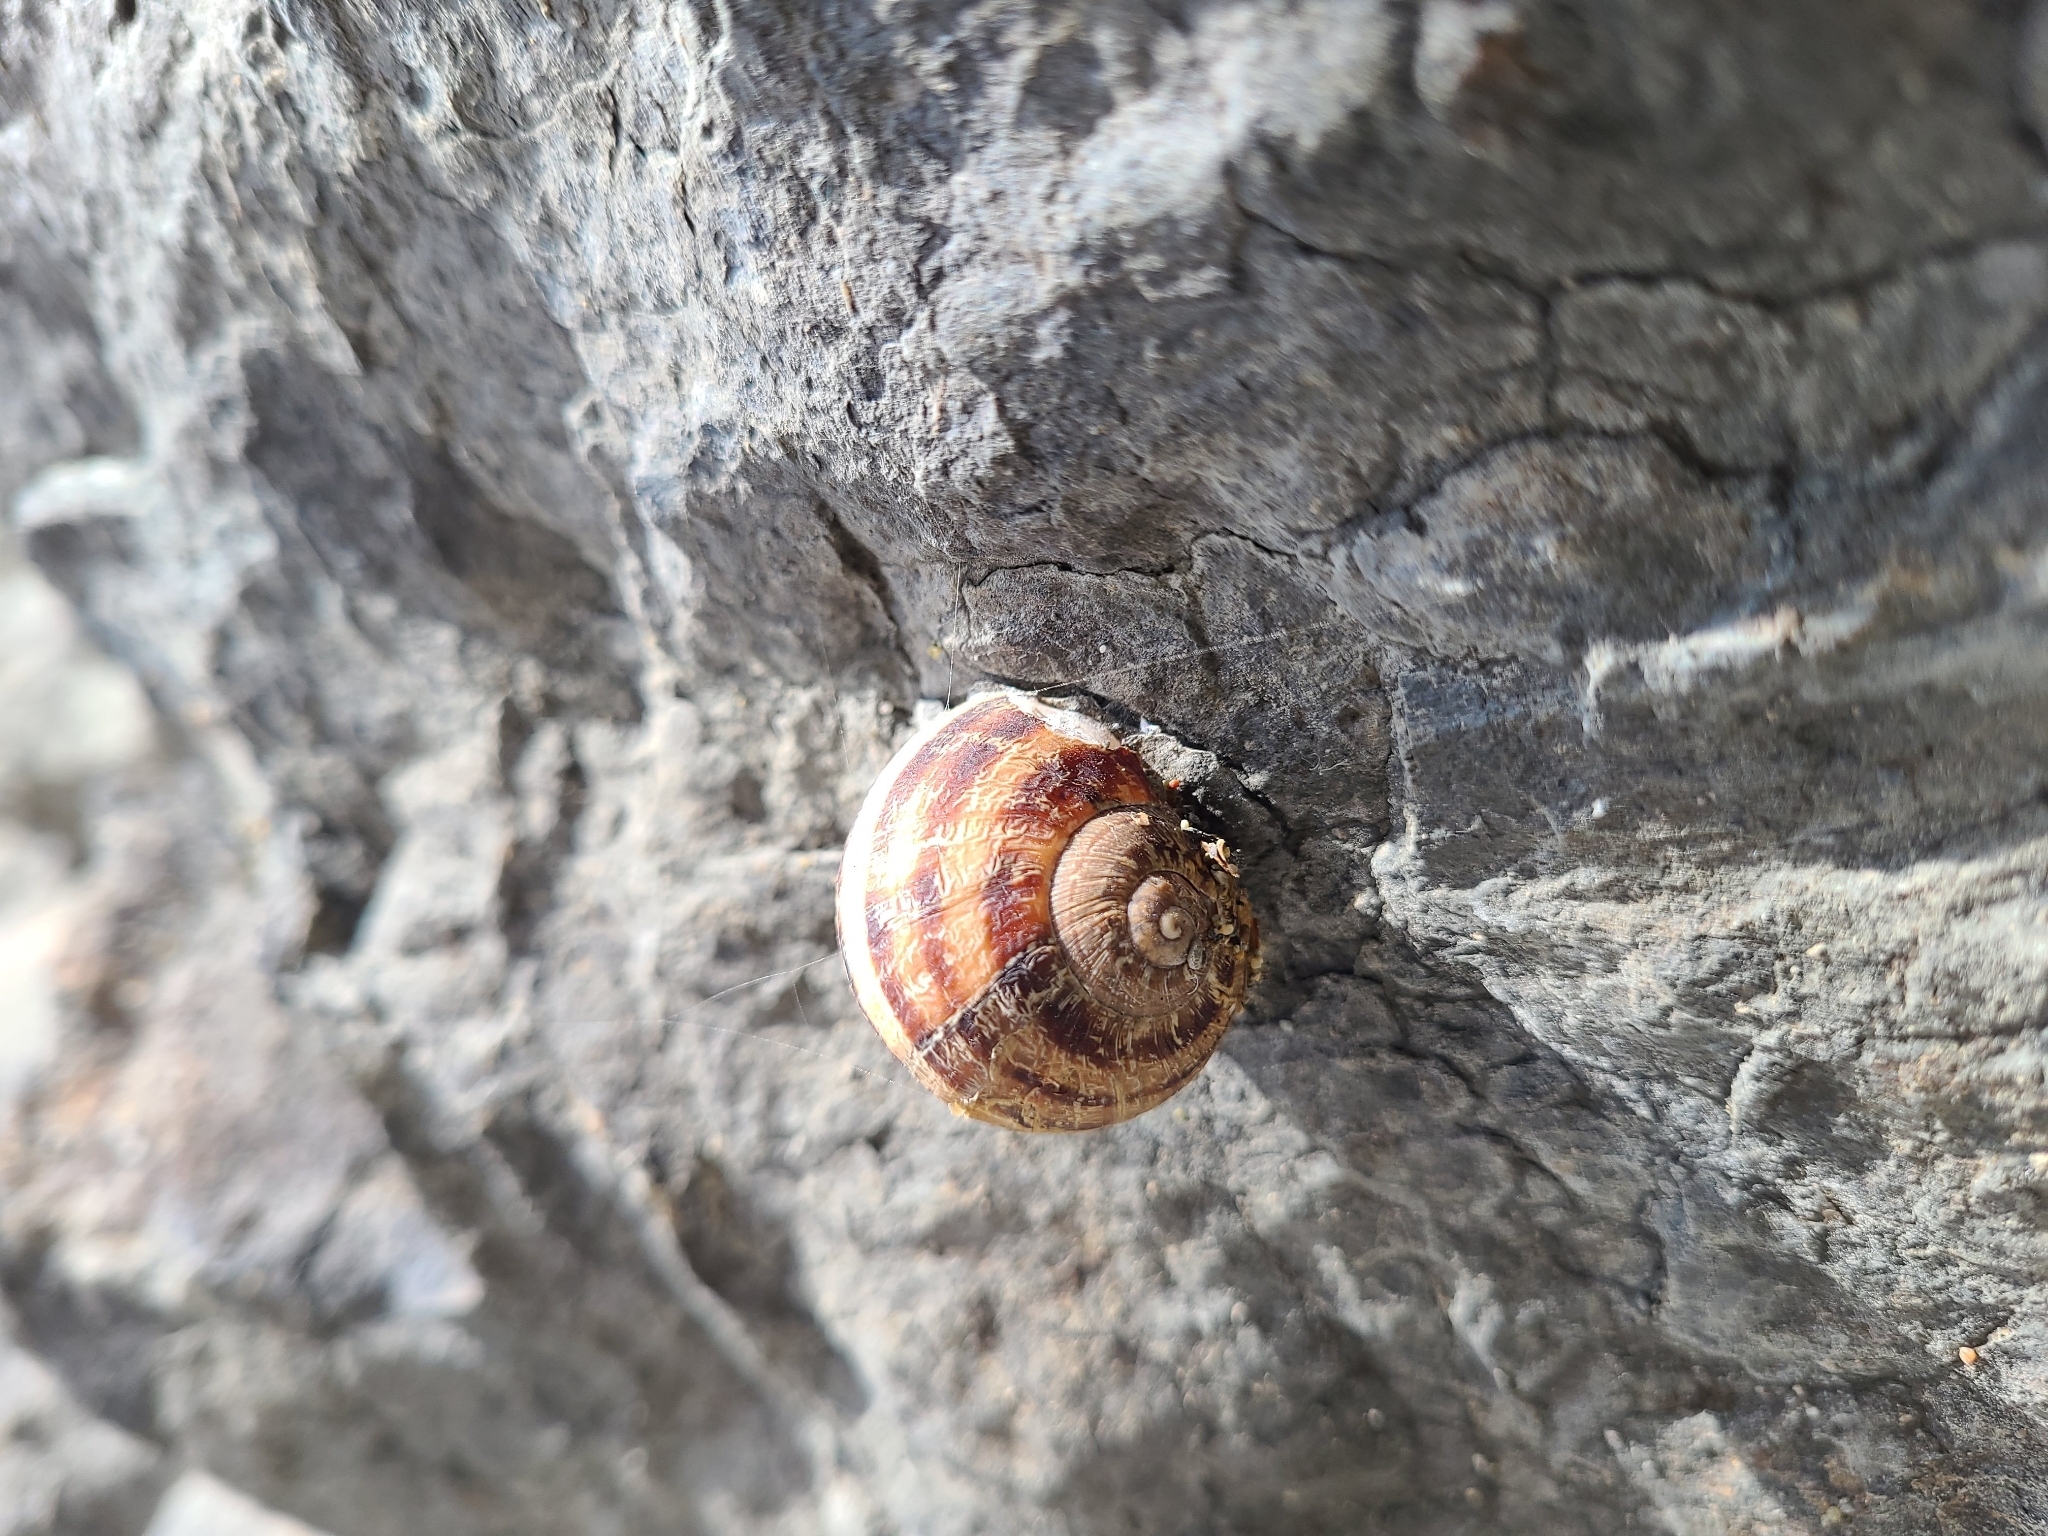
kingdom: Animalia
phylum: Mollusca
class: Gastropoda
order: Stylommatophora
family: Helicidae
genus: Cornu
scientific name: Cornu aspersum
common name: Brown garden snail
